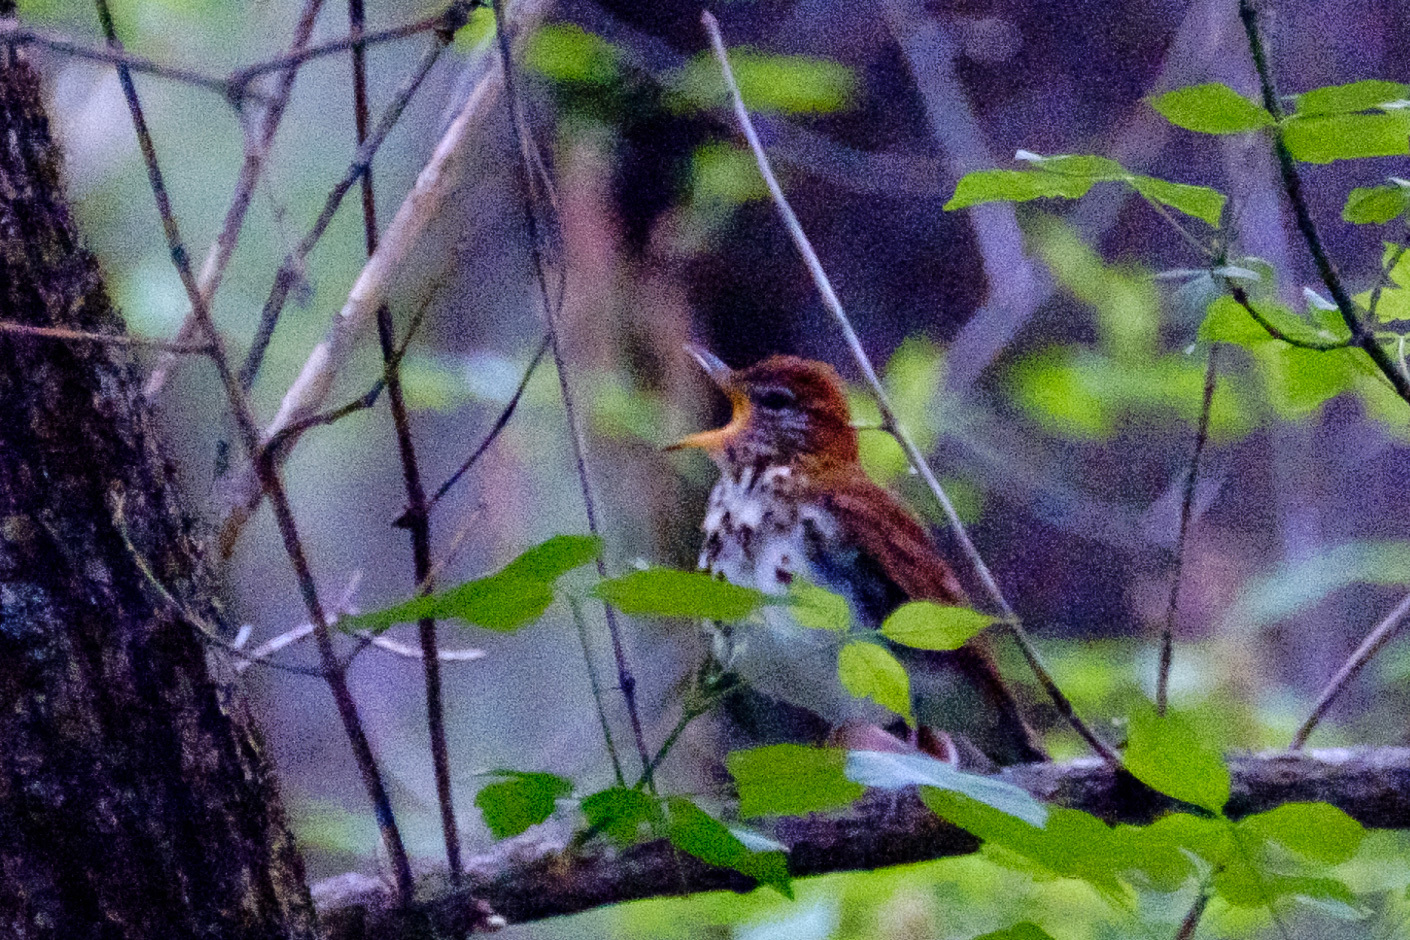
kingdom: Animalia
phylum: Chordata
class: Aves
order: Passeriformes
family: Turdidae
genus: Hylocichla
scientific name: Hylocichla mustelina
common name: Wood thrush
